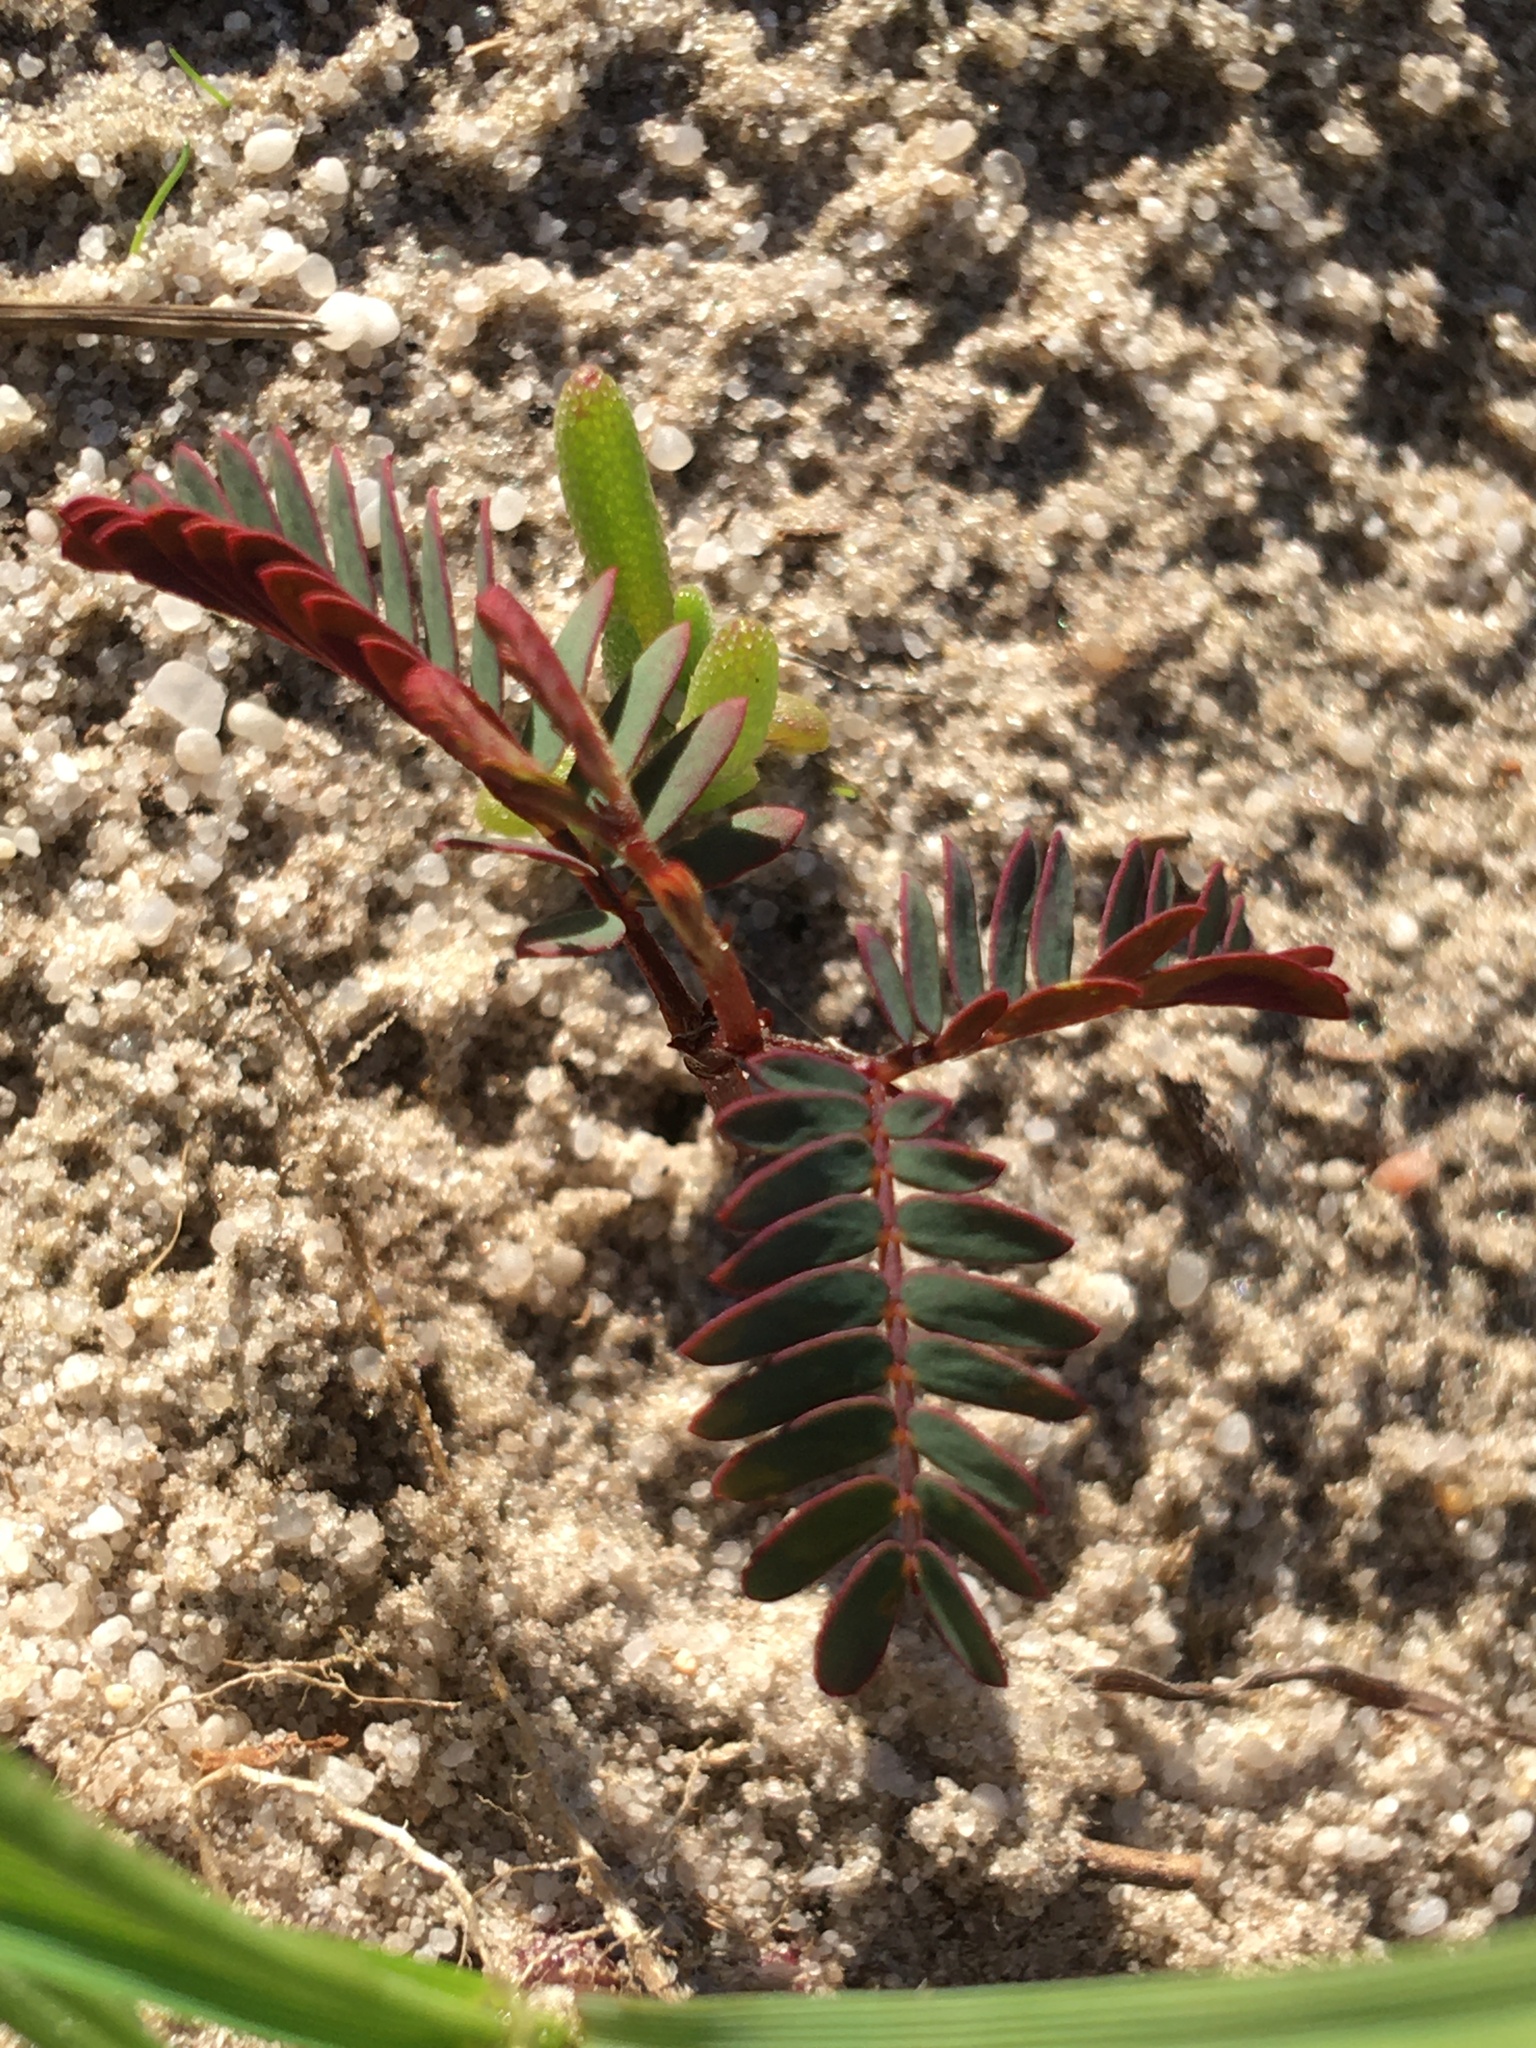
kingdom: Plantae
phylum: Tracheophyta
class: Magnoliopsida
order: Fabales
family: Fabaceae
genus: Acacia
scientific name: Acacia saligna
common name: Orange wattle
